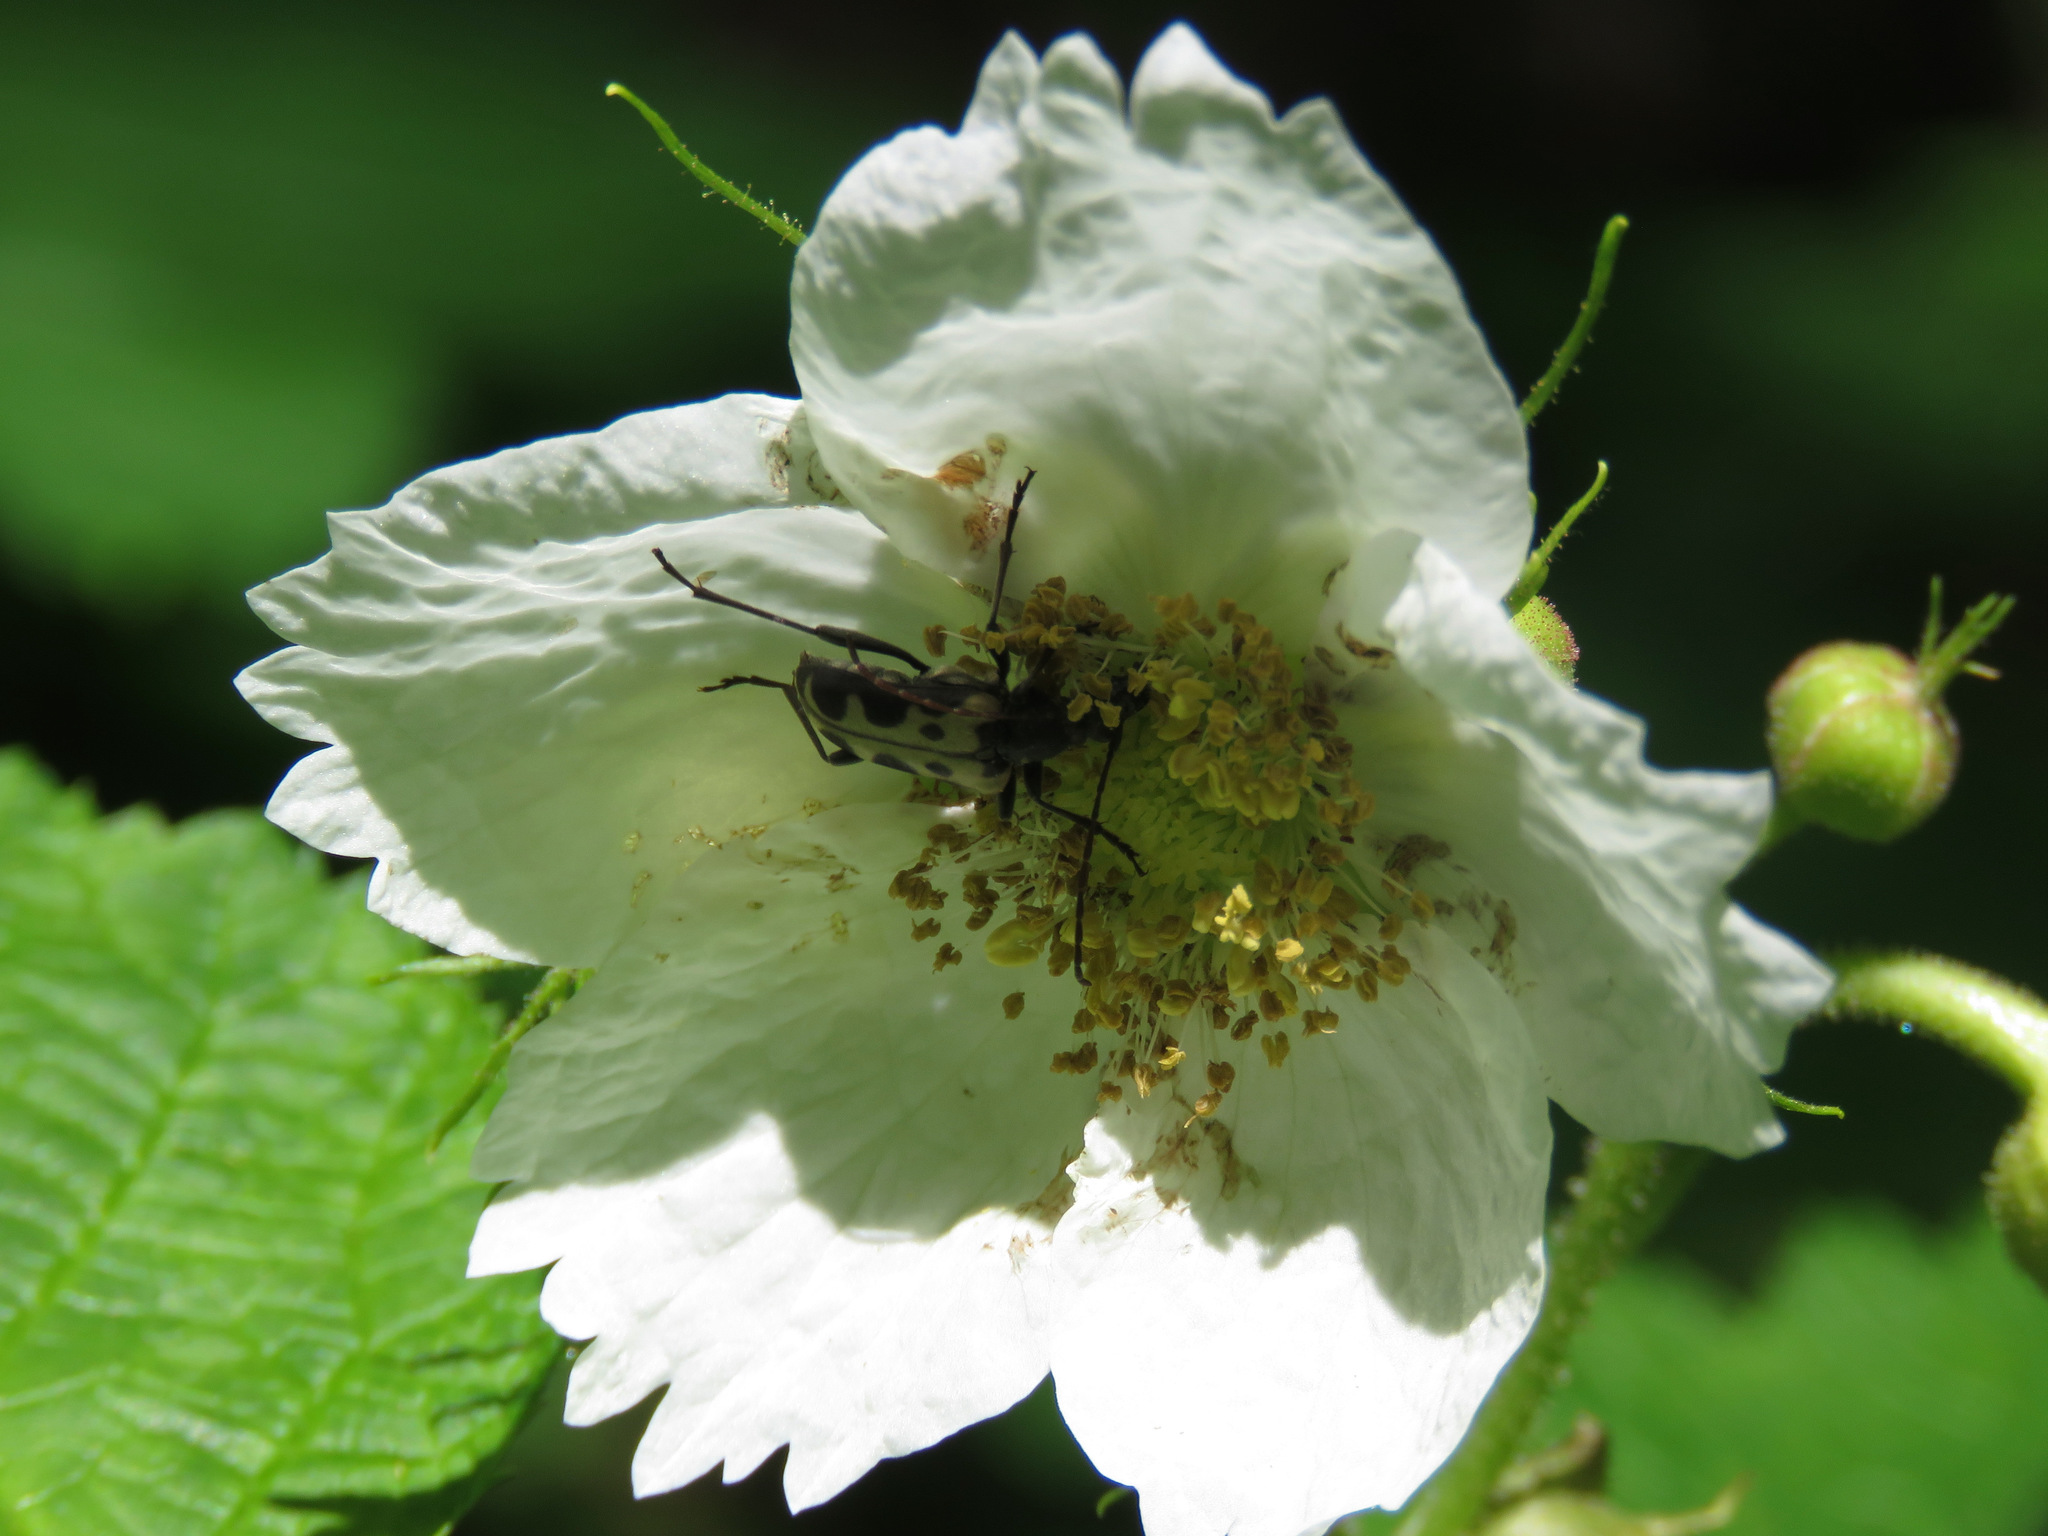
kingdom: Animalia
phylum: Arthropoda
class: Insecta
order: Coleoptera
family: Cerambycidae
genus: Evodinus
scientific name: Evodinus monticola
